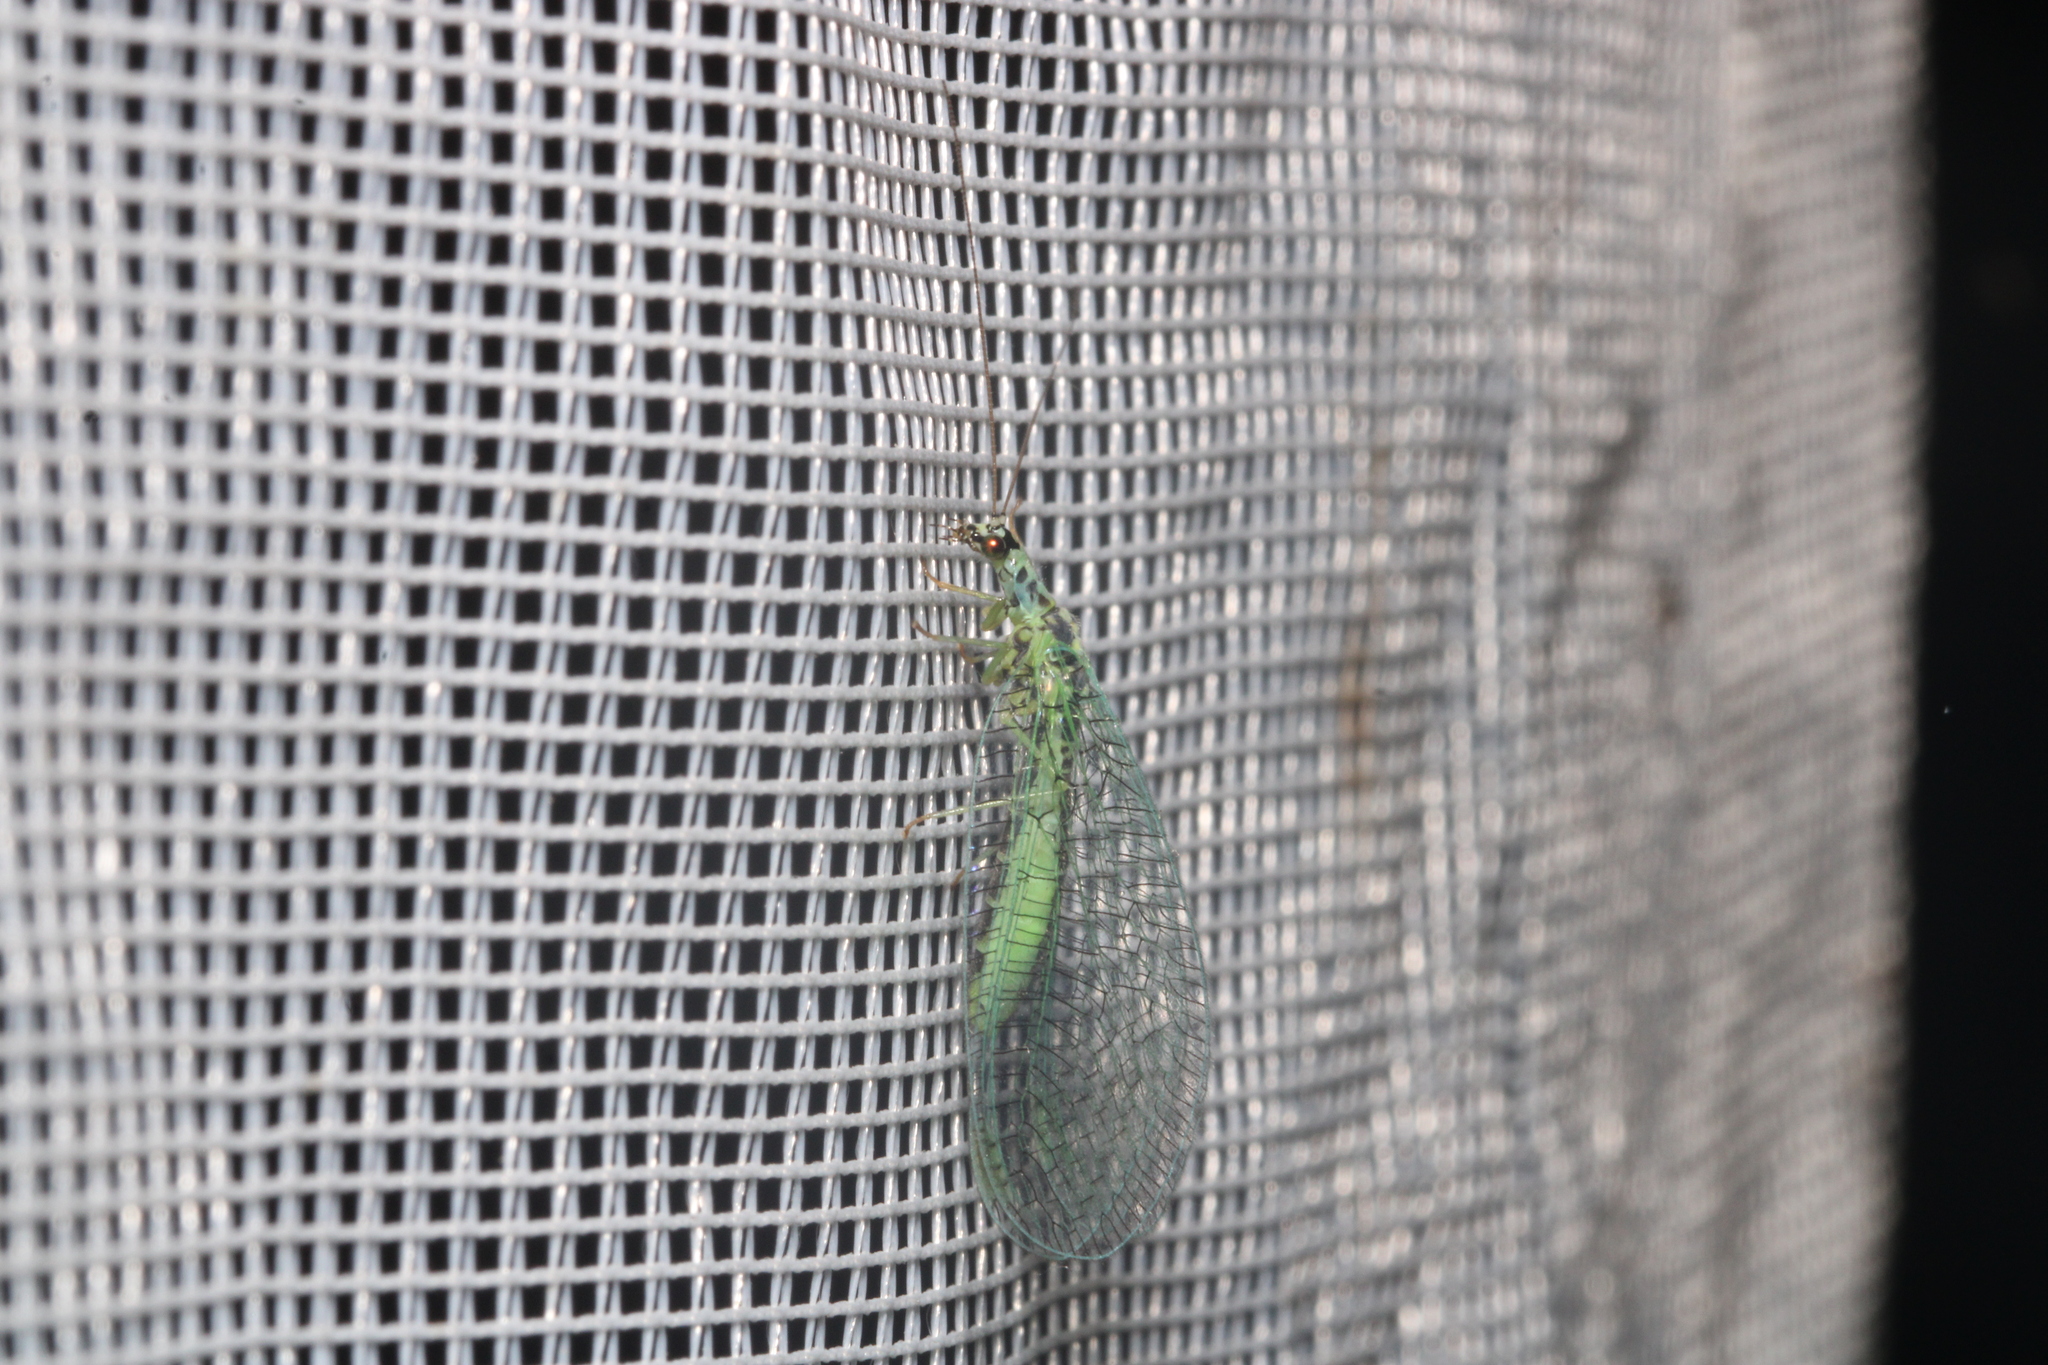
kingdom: Animalia
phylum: Arthropoda
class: Insecta
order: Neuroptera
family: Chrysopidae
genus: Chrysopa
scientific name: Chrysopa perla
